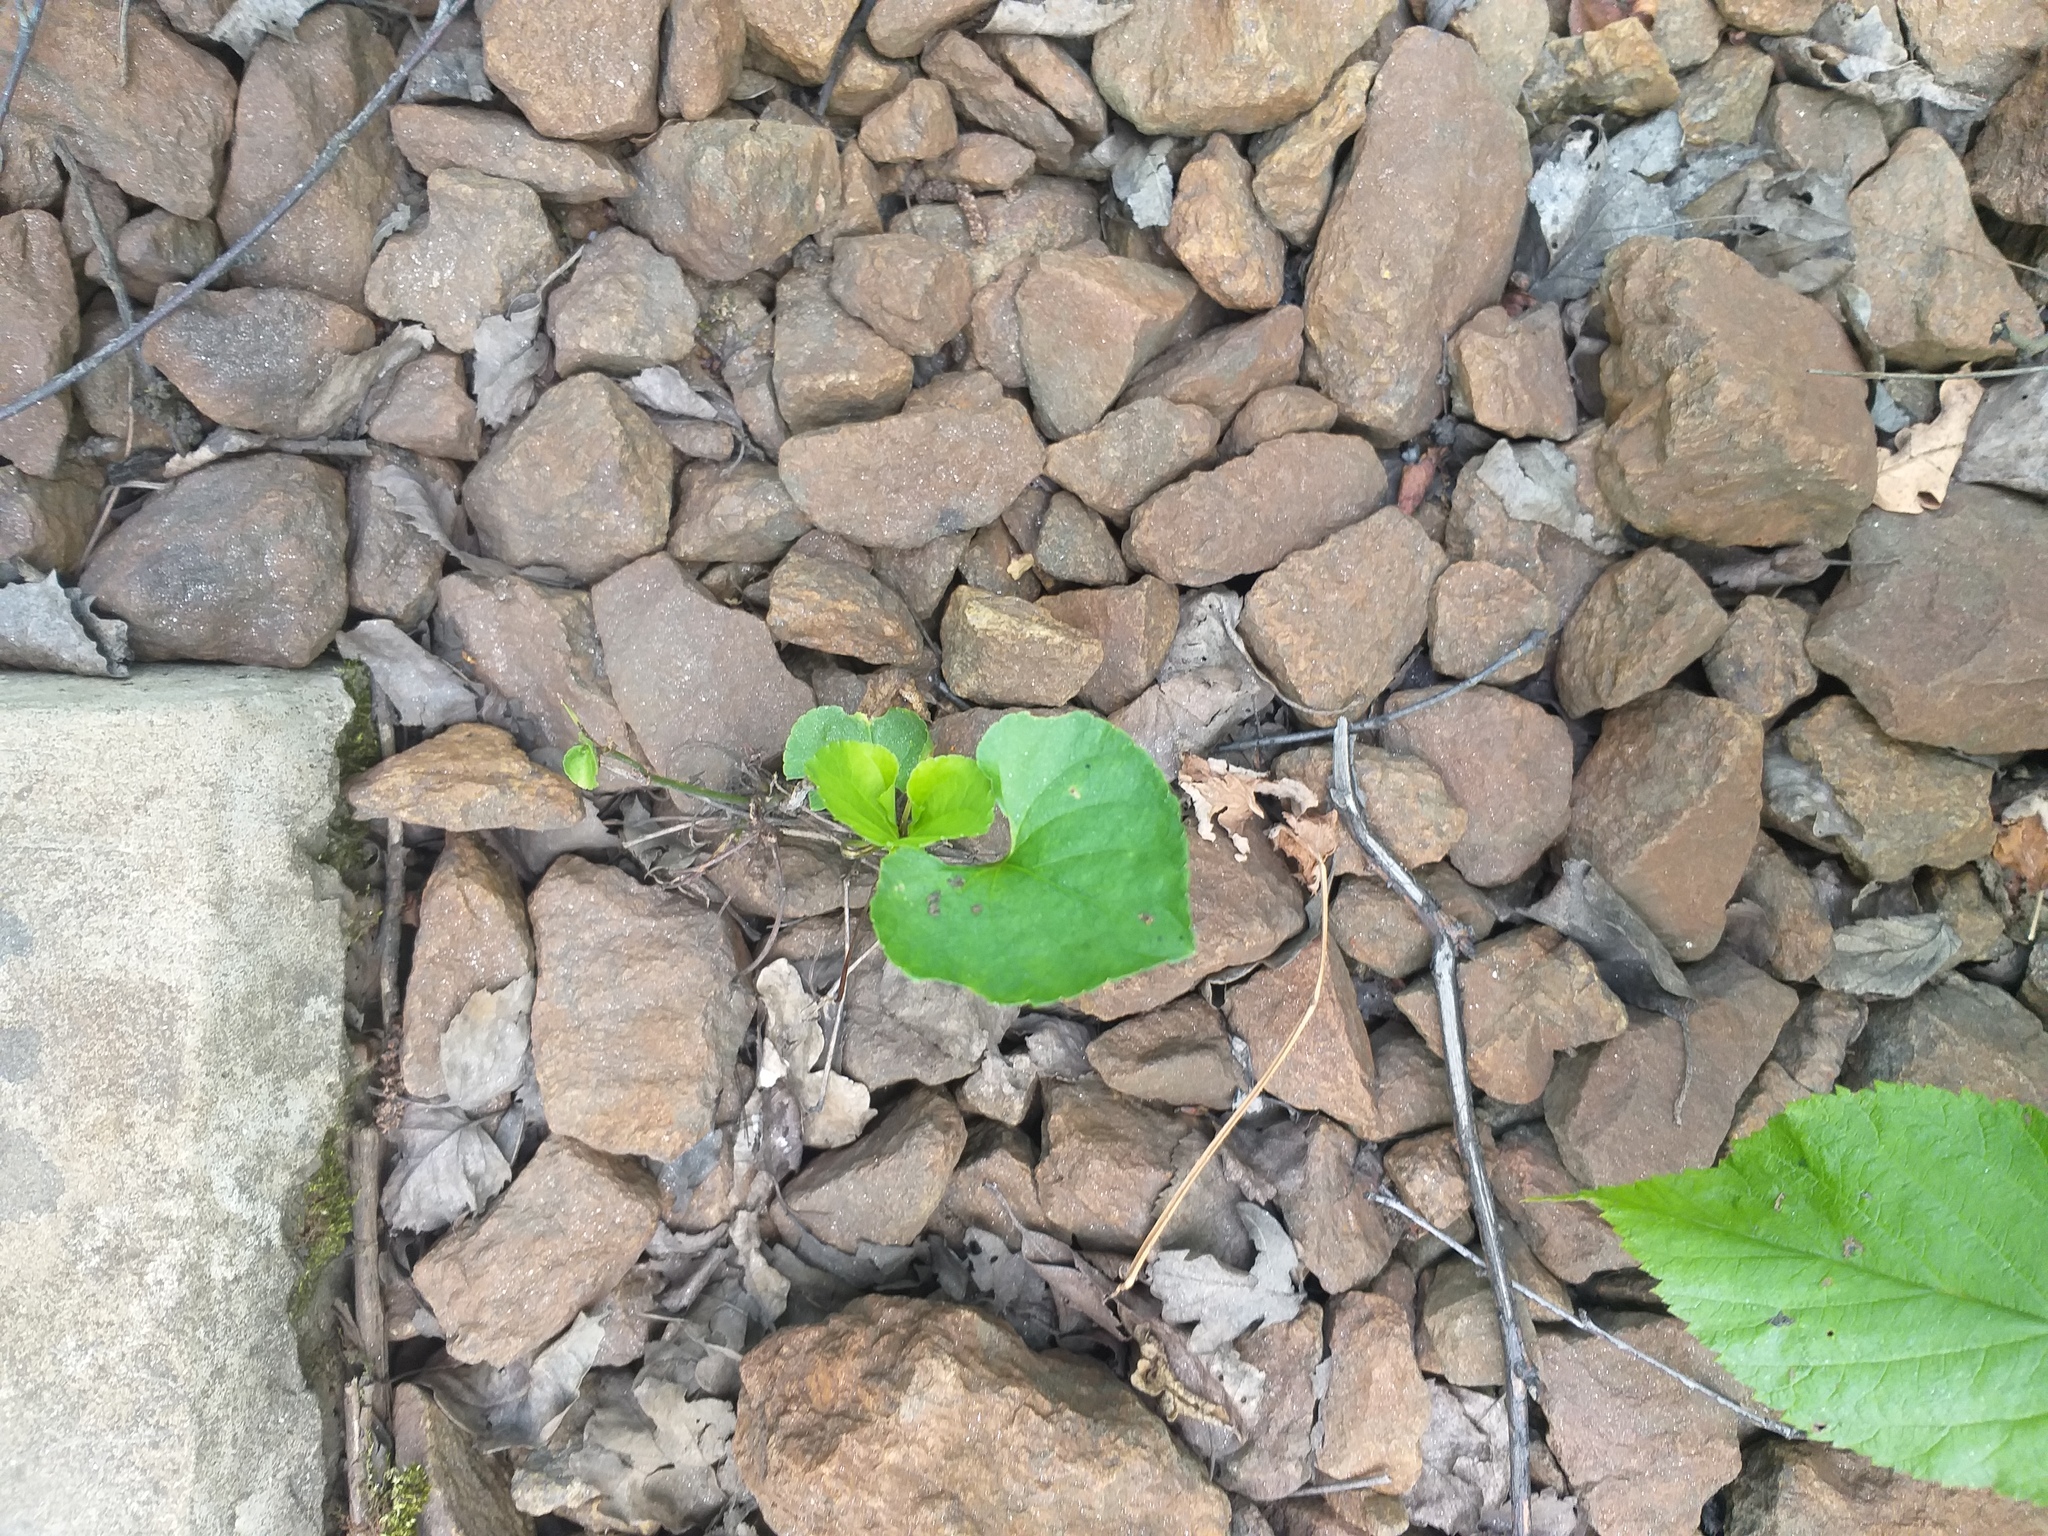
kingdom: Plantae
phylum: Tracheophyta
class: Magnoliopsida
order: Malpighiales
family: Violaceae
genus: Viola
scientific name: Viola mirabilis
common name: Wonder violet
